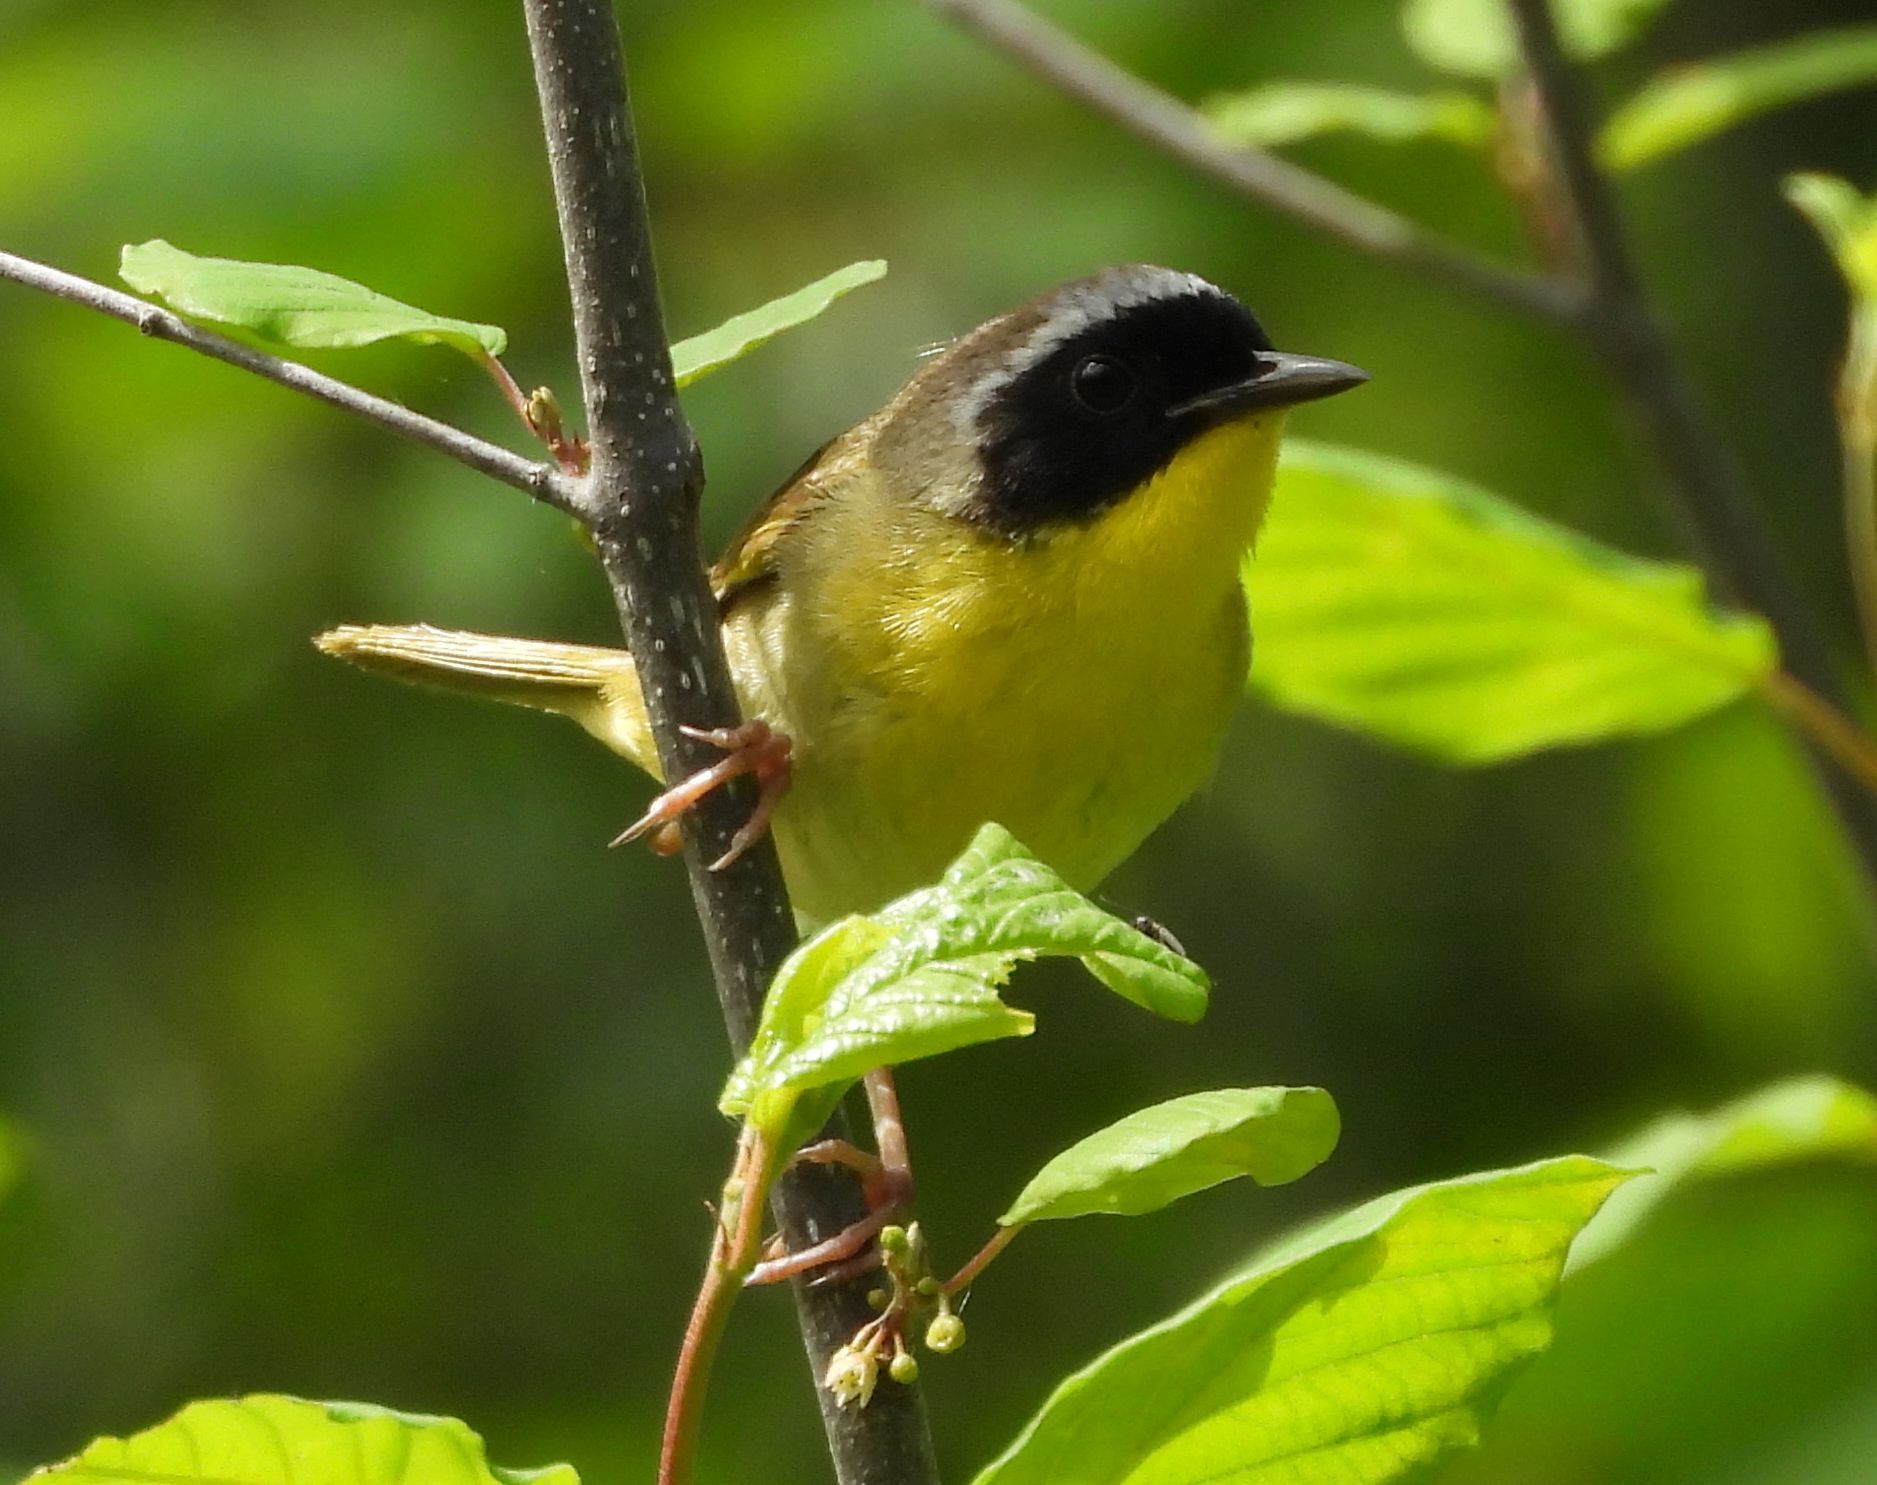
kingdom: Animalia
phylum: Chordata
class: Aves
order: Passeriformes
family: Parulidae
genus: Geothlypis
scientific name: Geothlypis trichas
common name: Common yellowthroat
